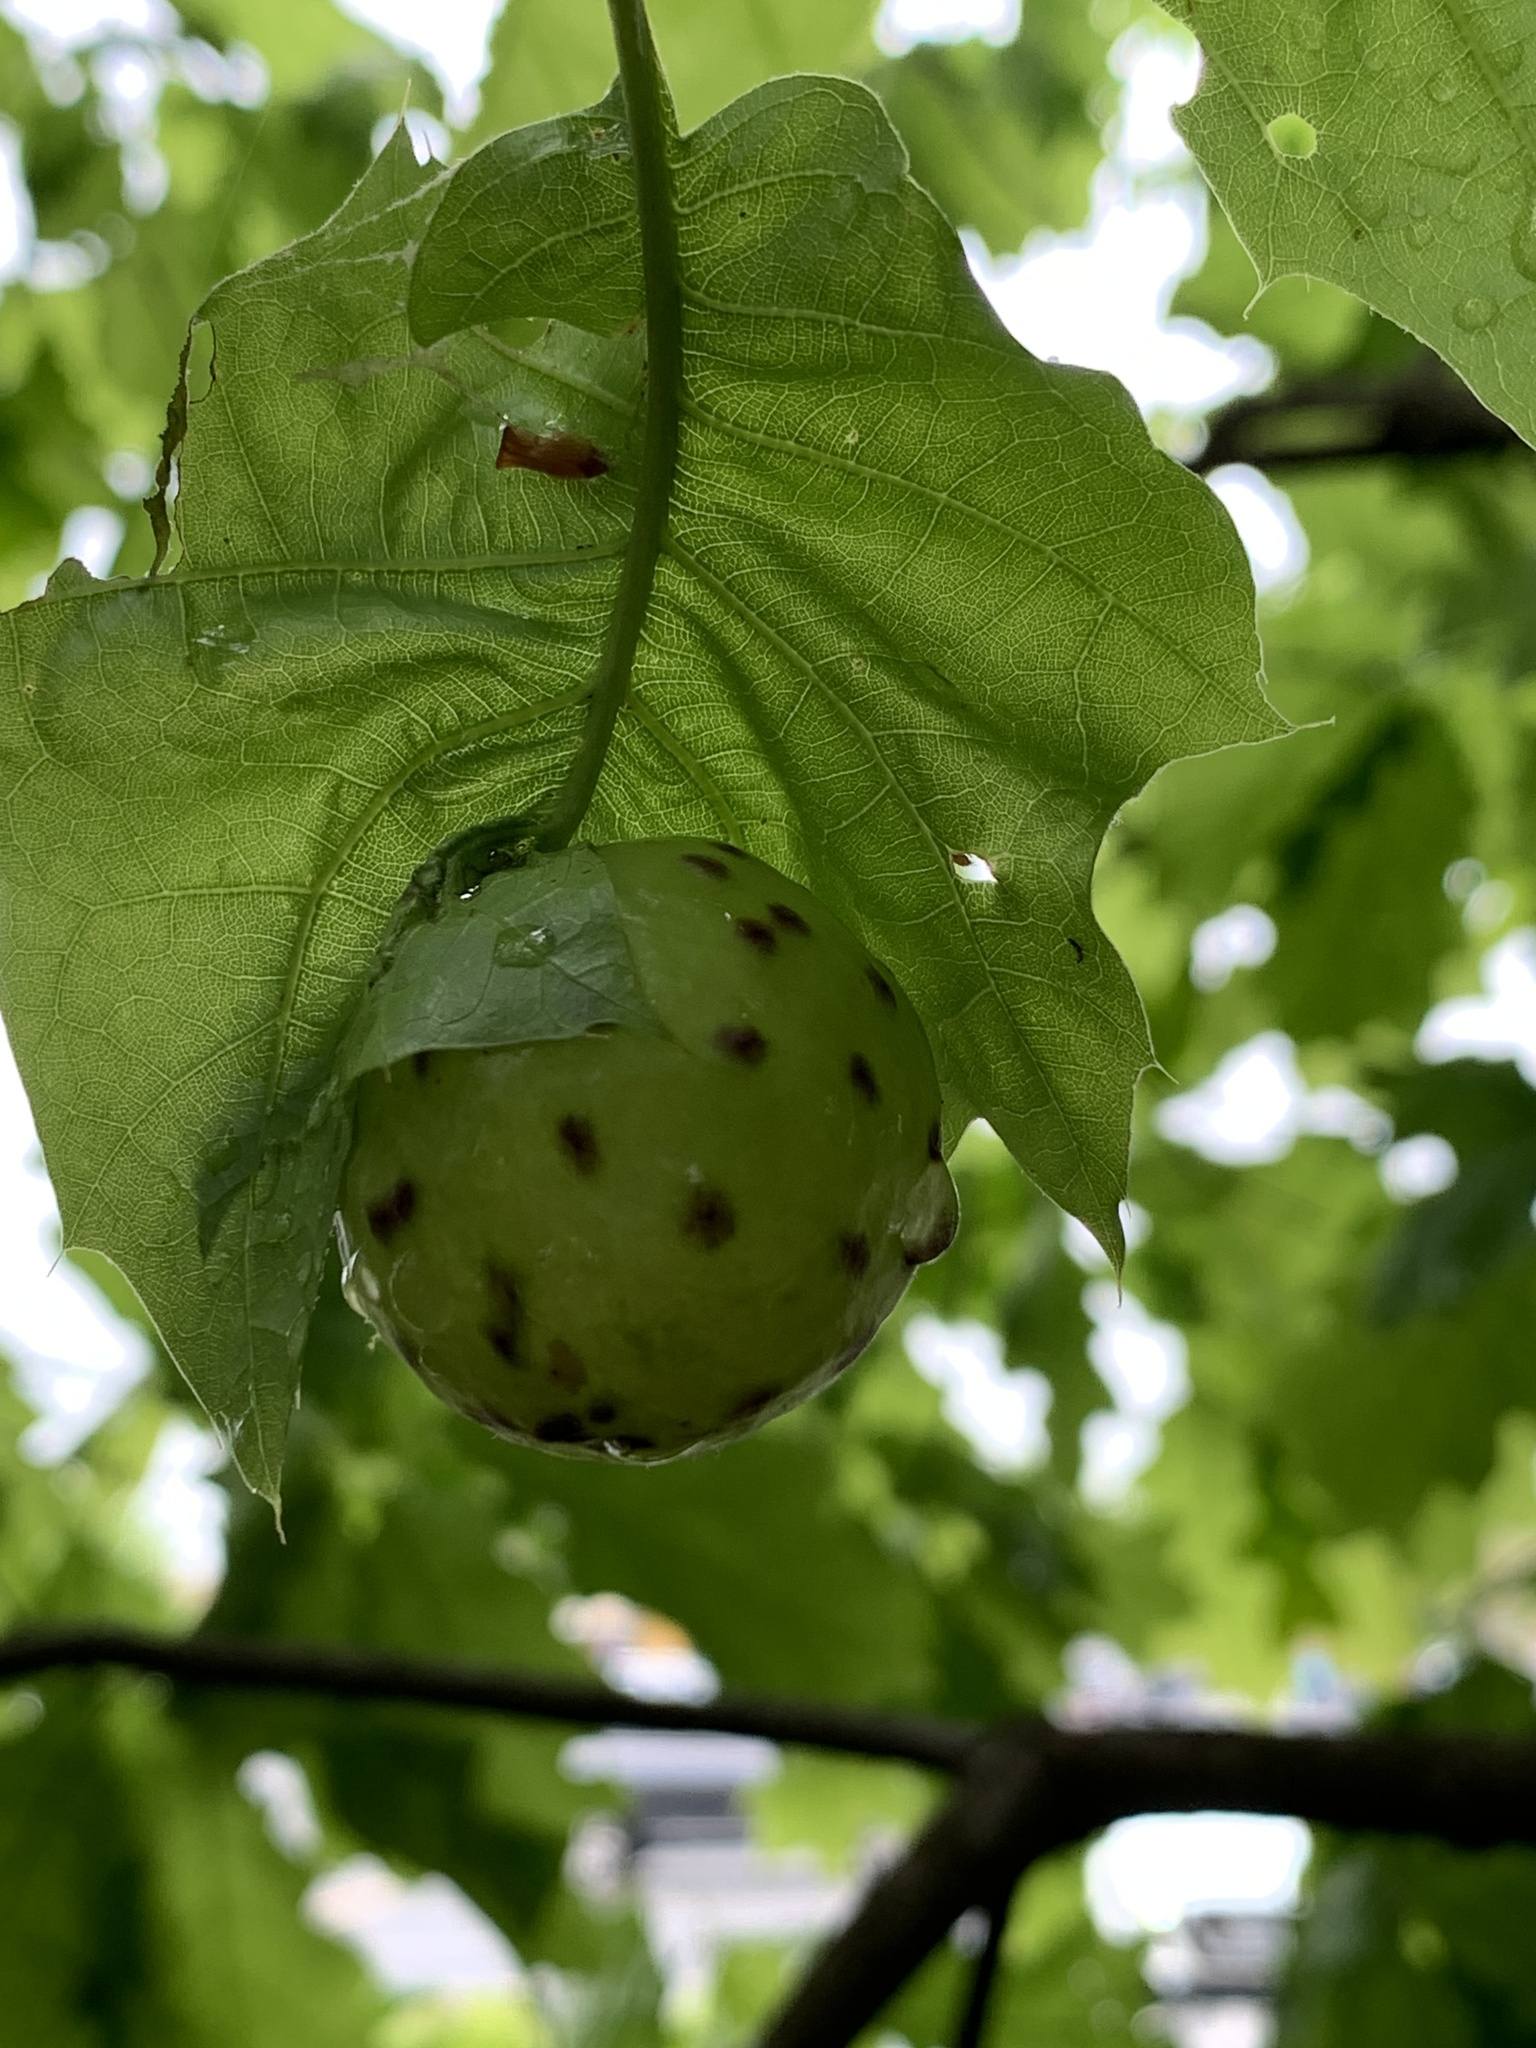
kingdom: Animalia
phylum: Arthropoda
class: Insecta
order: Hymenoptera
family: Cynipidae
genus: Amphibolips
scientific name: Amphibolips
